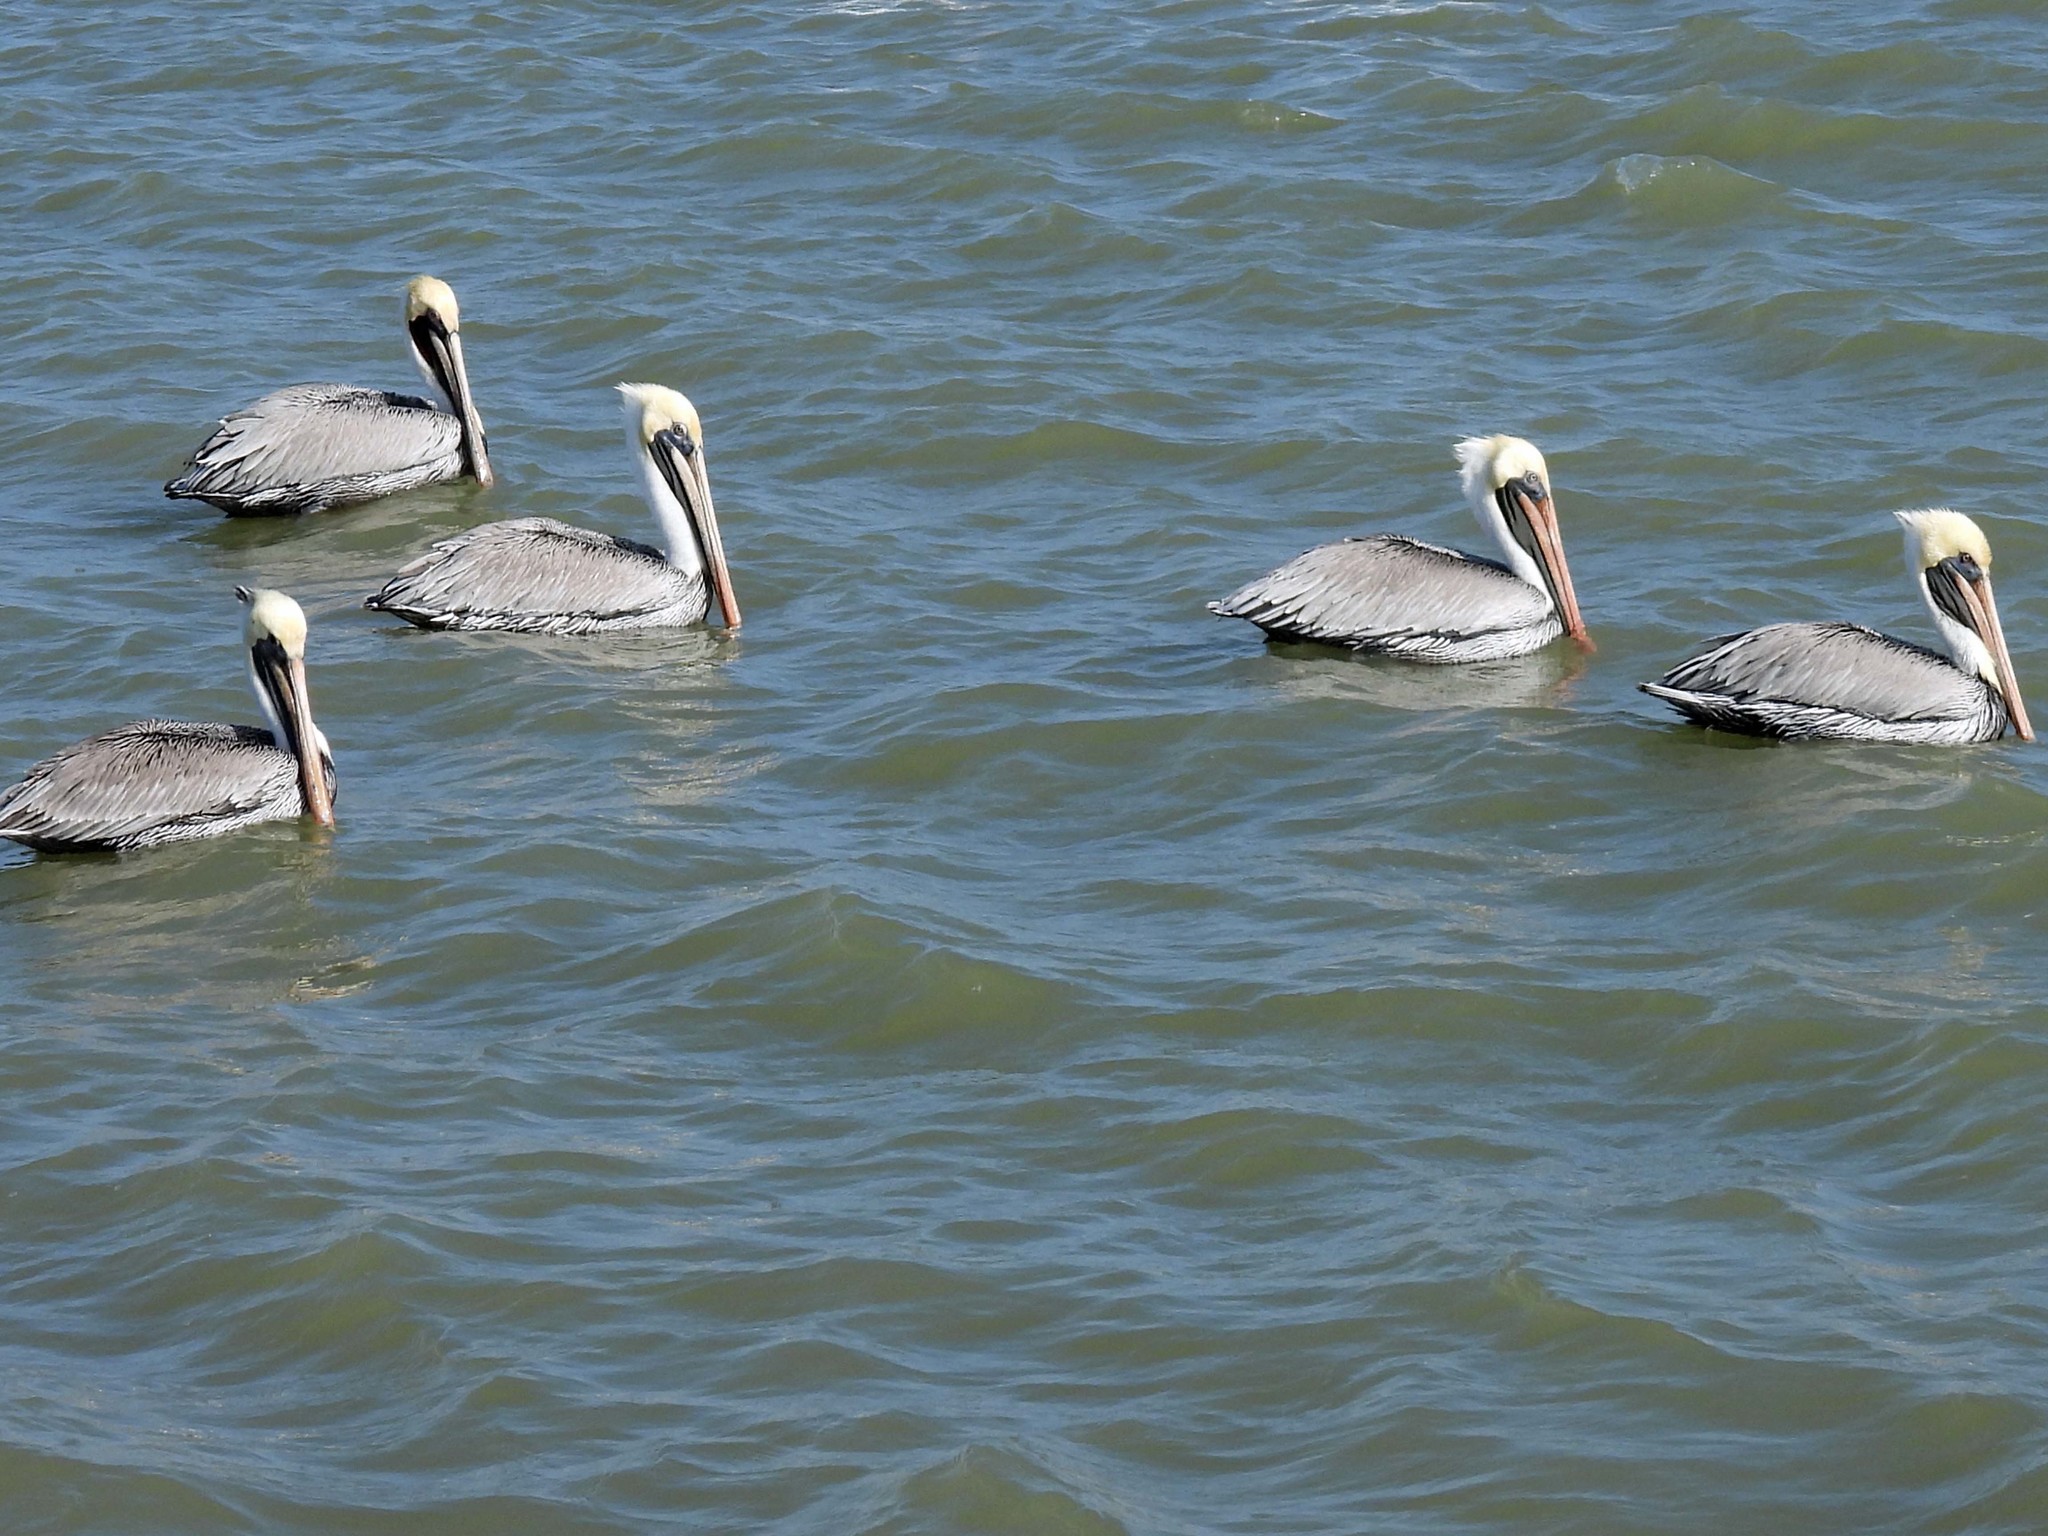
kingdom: Animalia
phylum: Chordata
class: Aves
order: Pelecaniformes
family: Pelecanidae
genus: Pelecanus
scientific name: Pelecanus occidentalis
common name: Brown pelican
